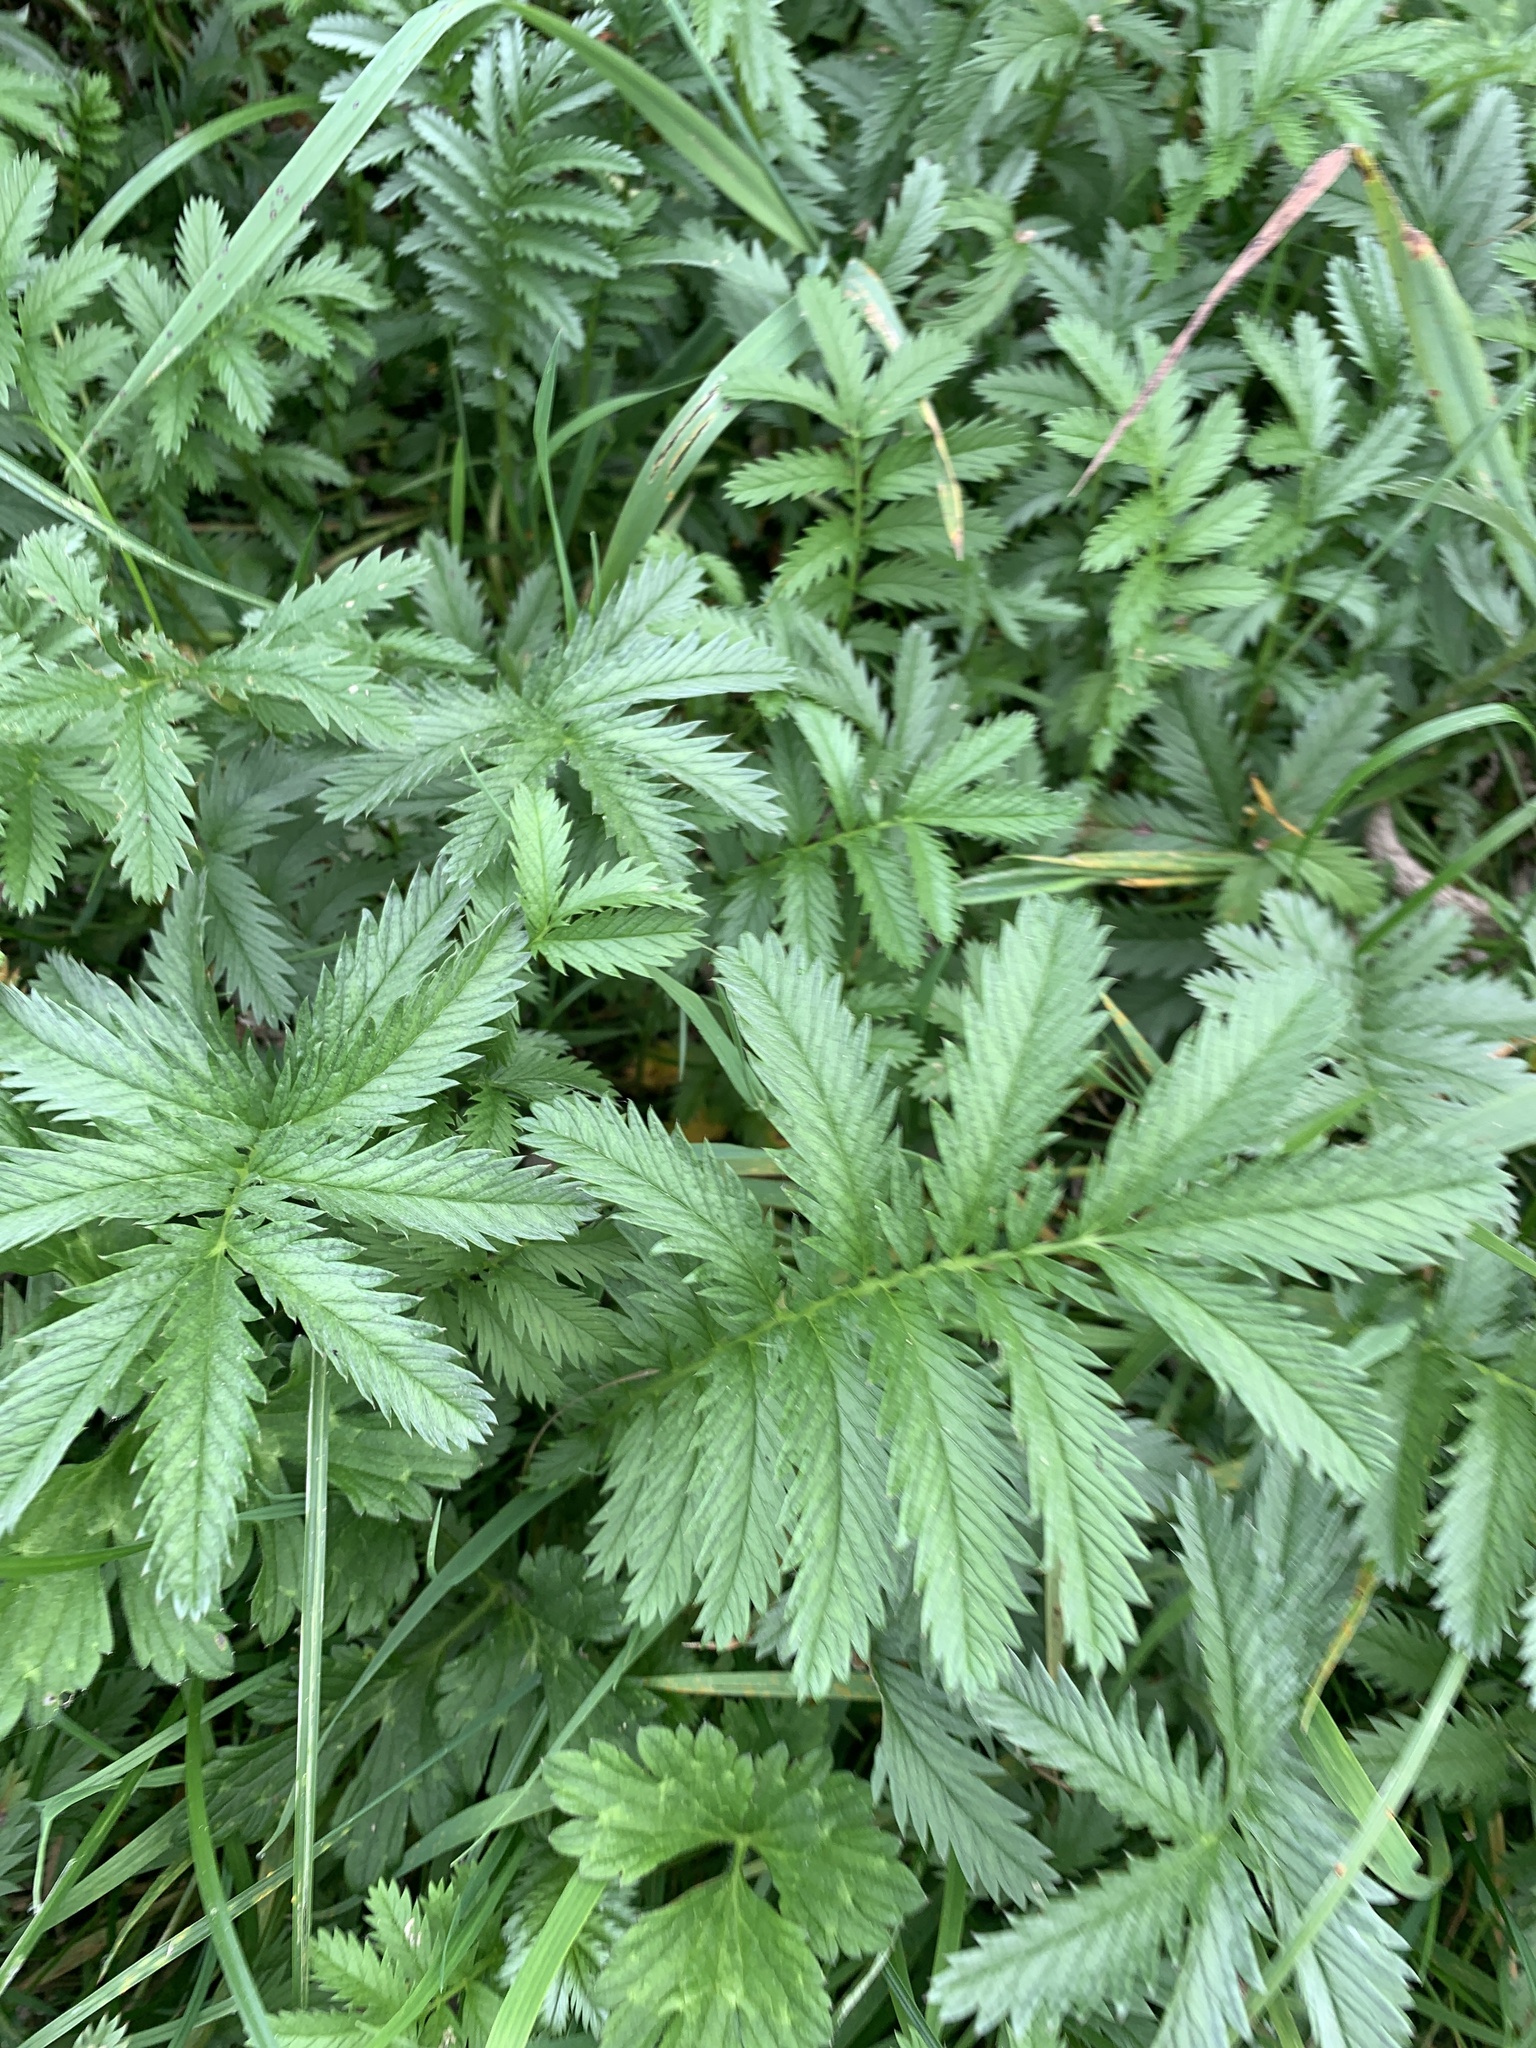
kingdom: Plantae
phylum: Tracheophyta
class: Magnoliopsida
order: Rosales
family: Rosaceae
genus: Argentina
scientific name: Argentina anserina
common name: Common silverweed
